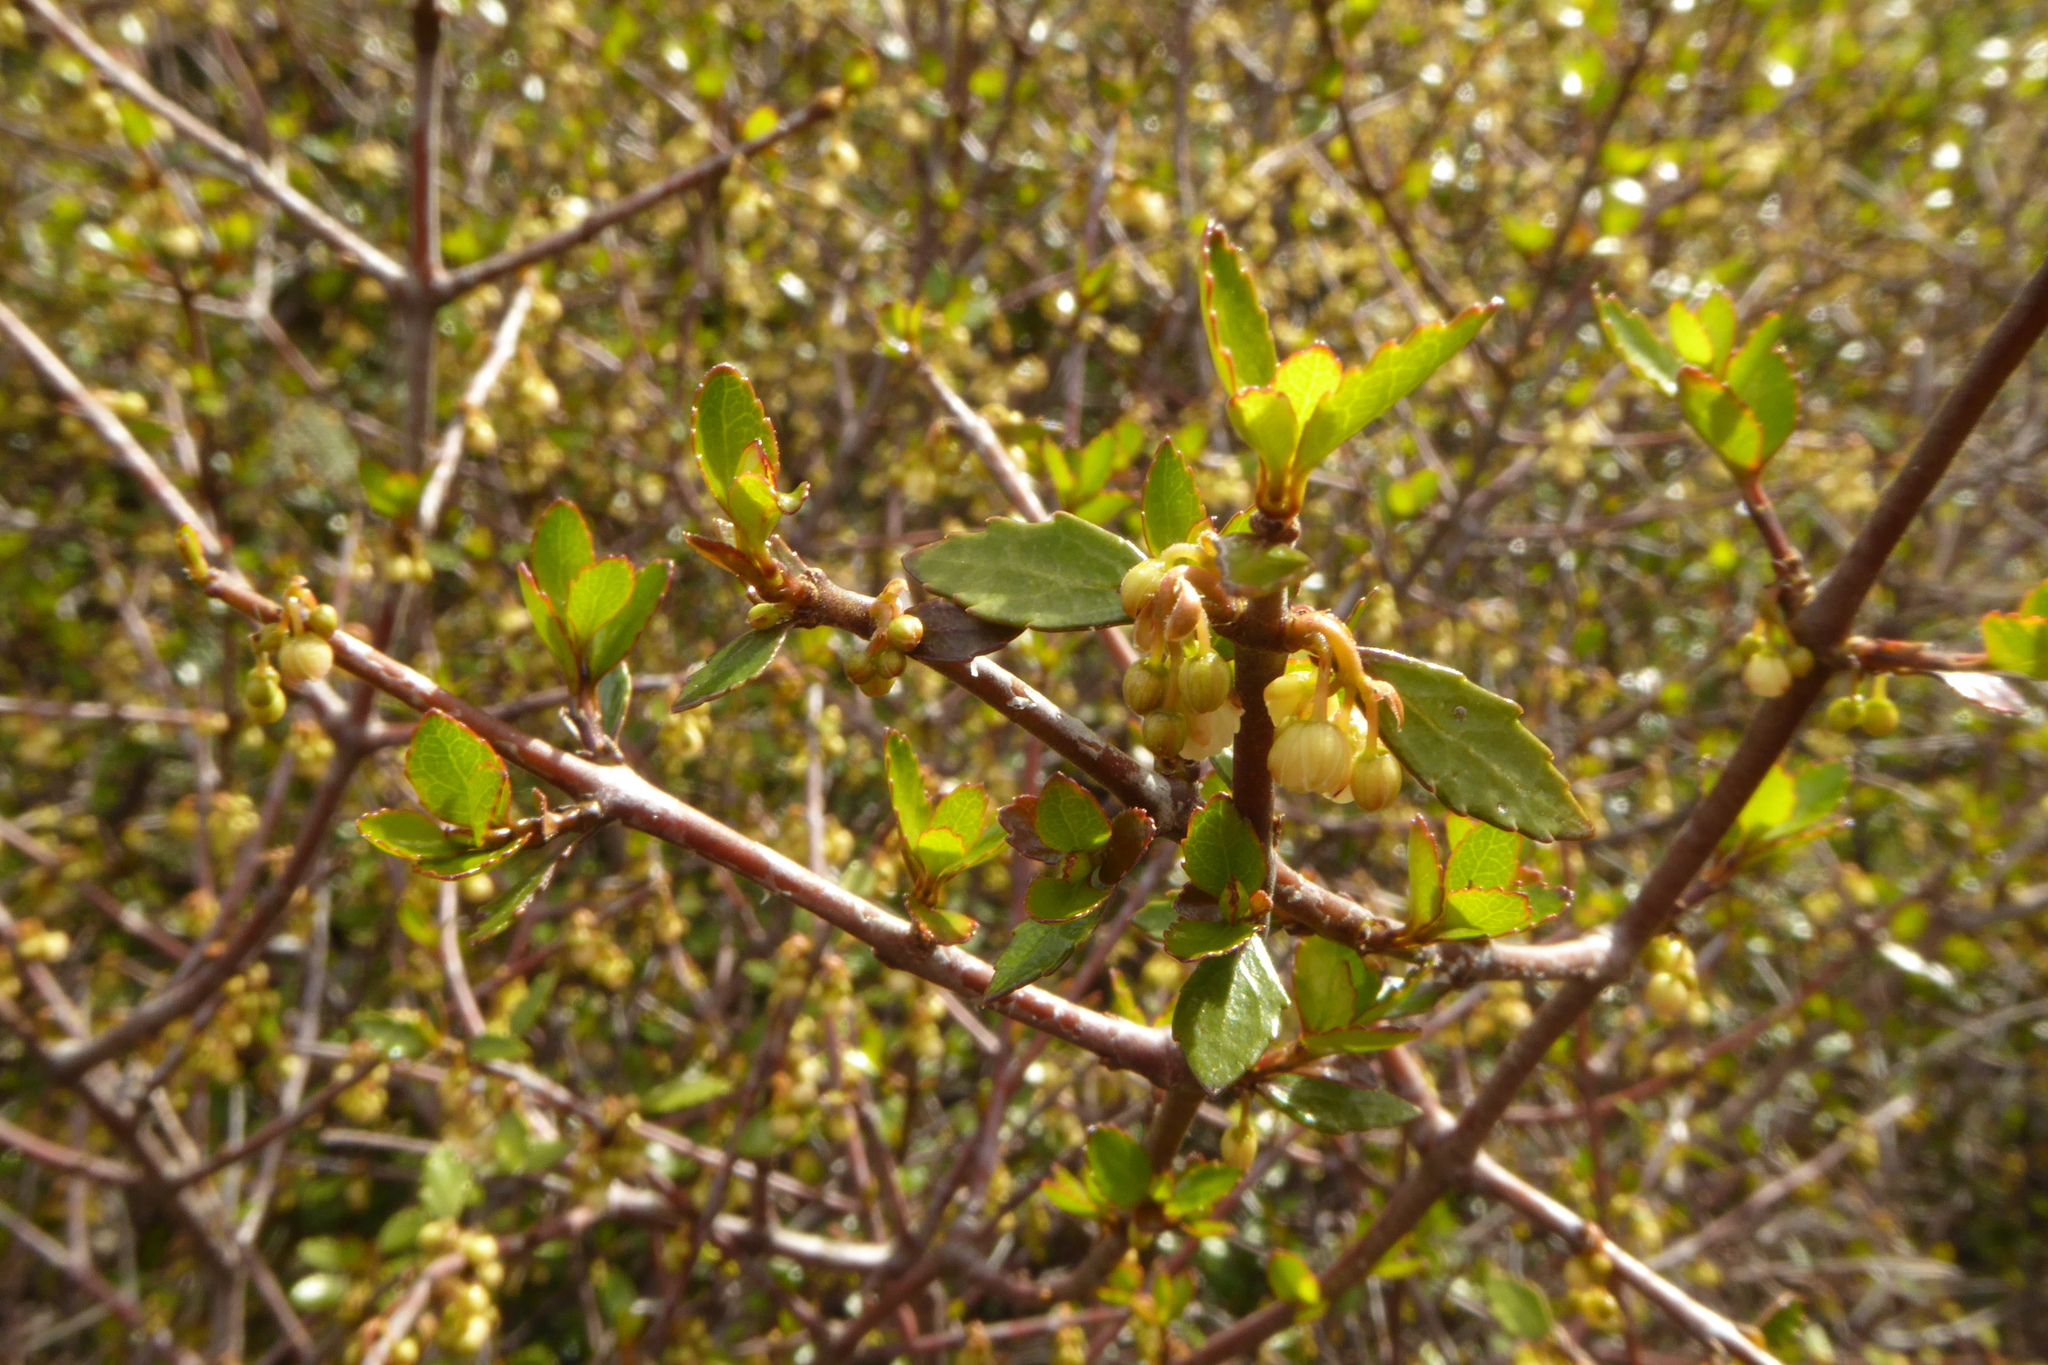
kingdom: Plantae
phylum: Tracheophyta
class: Magnoliopsida
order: Oxalidales
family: Elaeocarpaceae
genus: Aristotelia
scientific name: Aristotelia fruticosa
